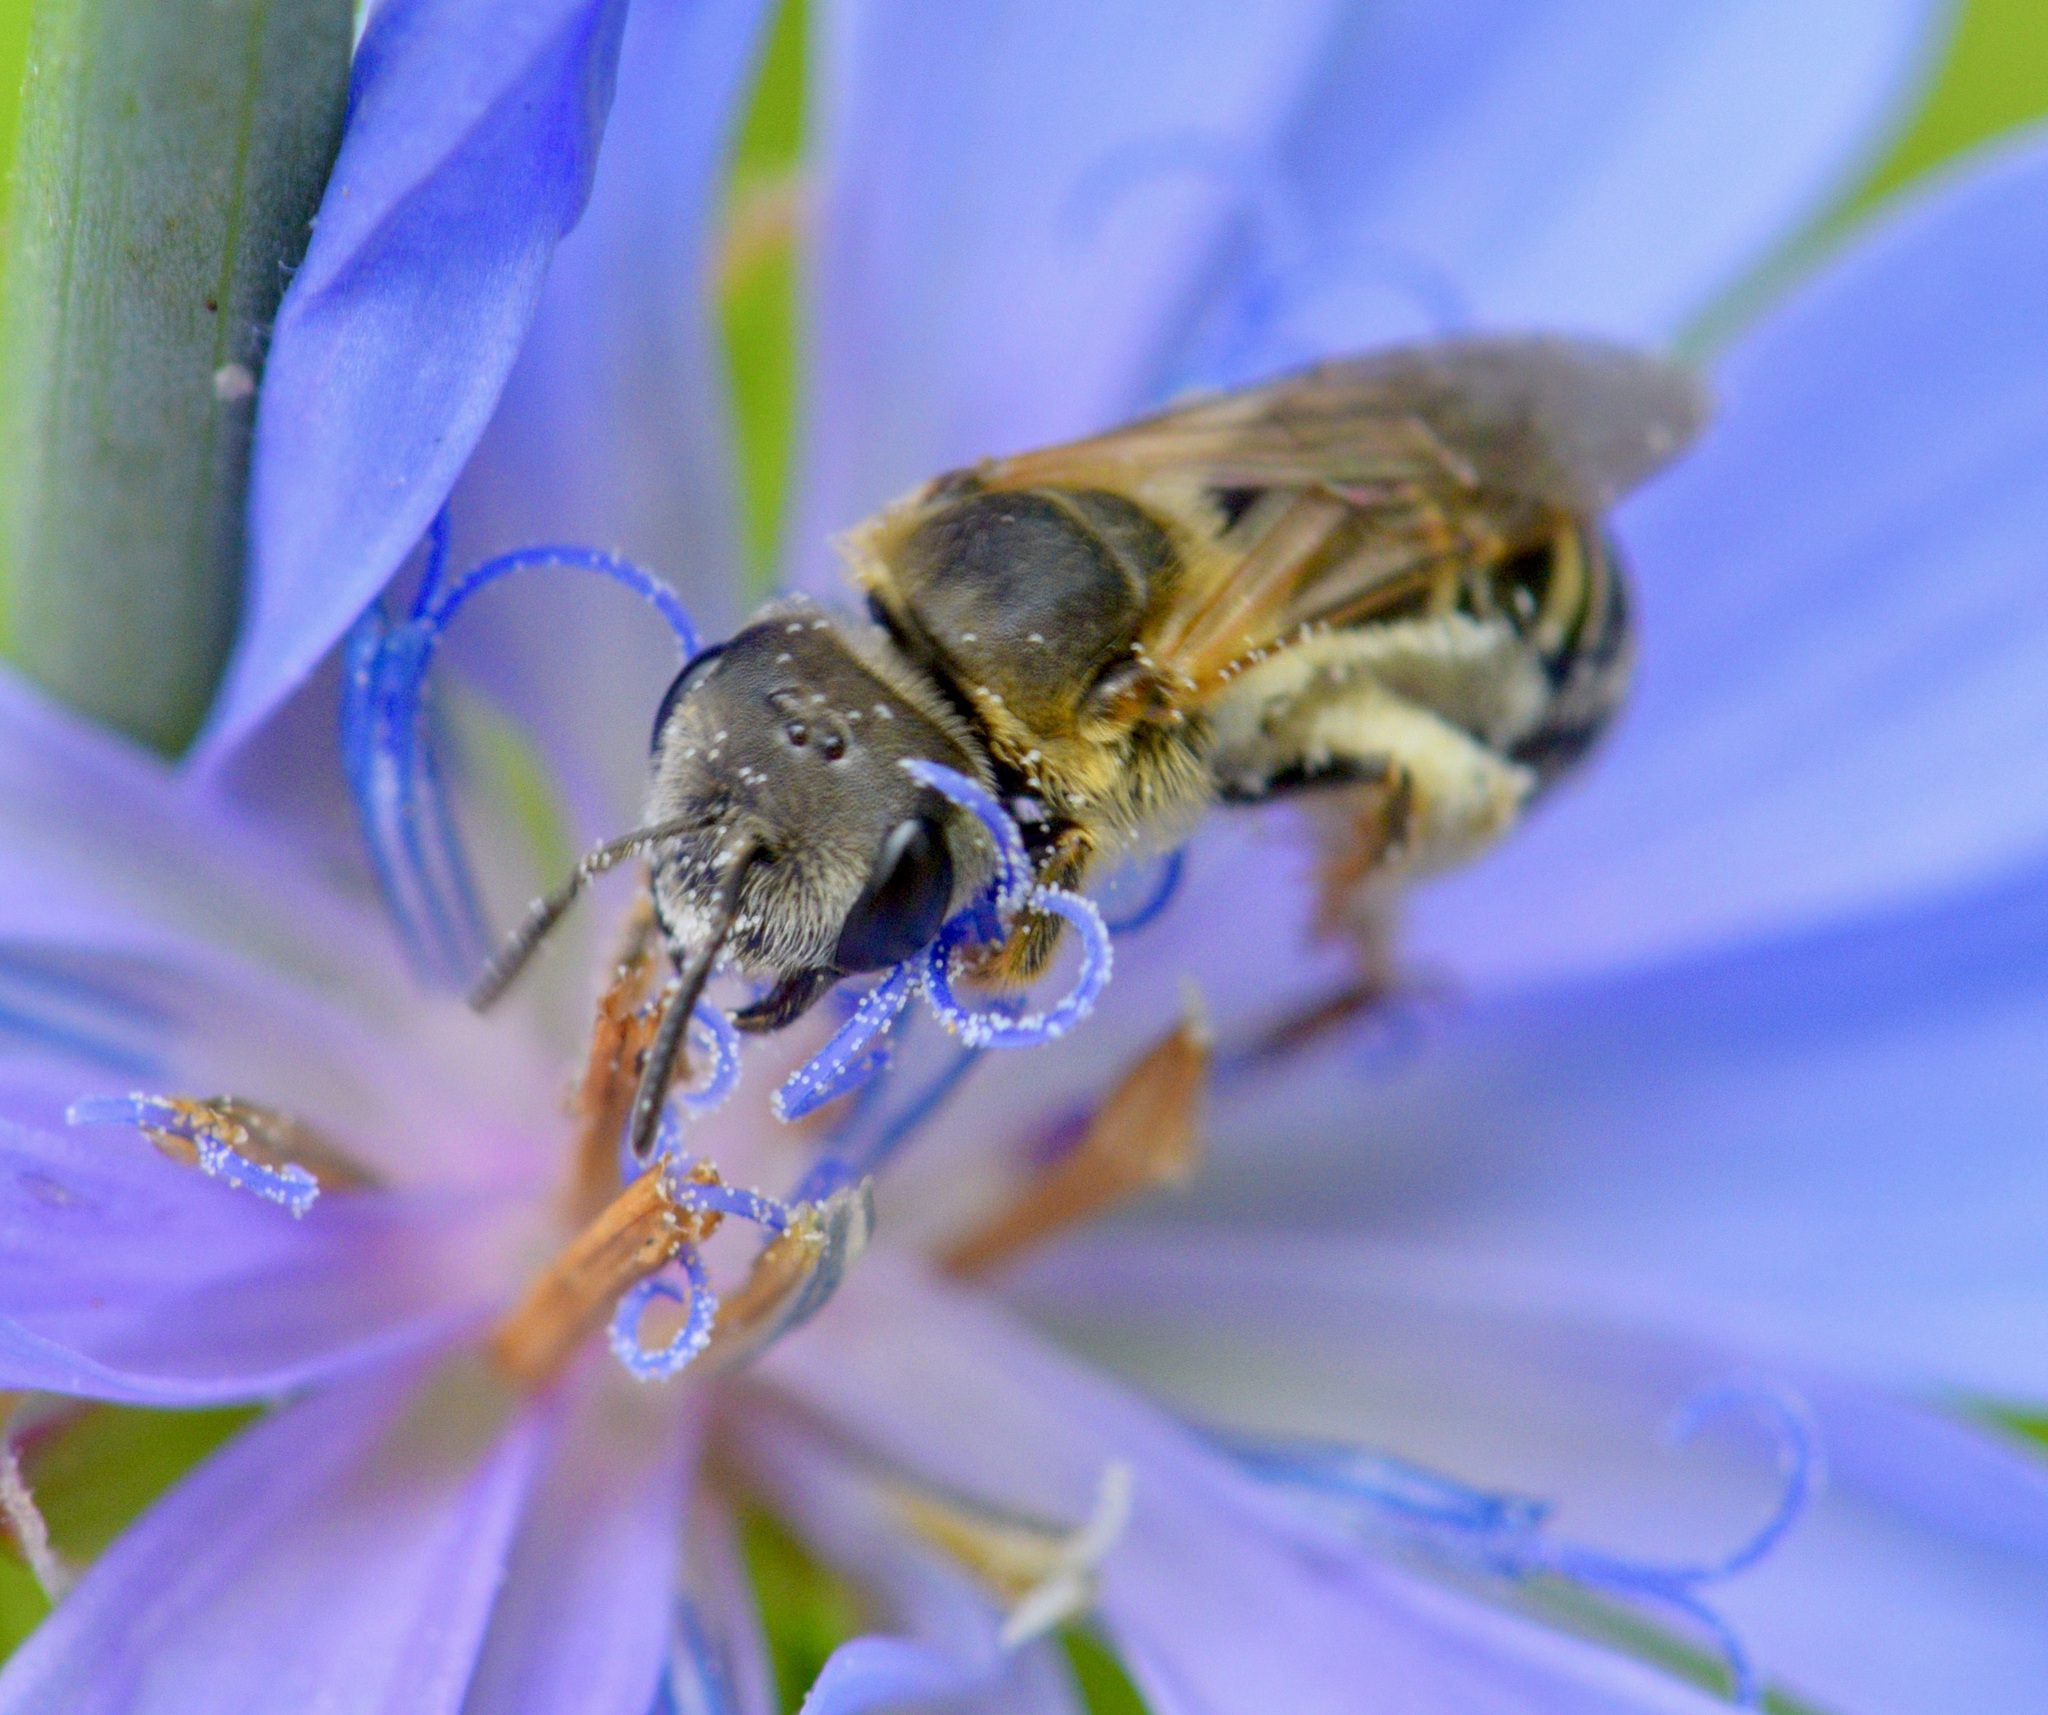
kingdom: Animalia
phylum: Arthropoda
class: Insecta
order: Hymenoptera
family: Halictidae
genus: Halictus
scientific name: Halictus ligatus
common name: Ligated furrow bee
